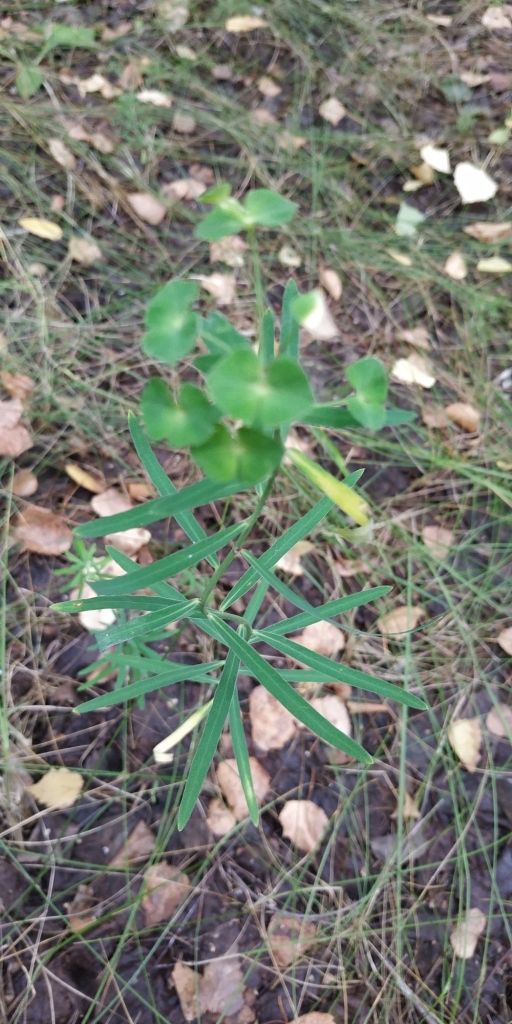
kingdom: Plantae
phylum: Tracheophyta
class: Magnoliopsida
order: Malpighiales
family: Euphorbiaceae
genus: Euphorbia
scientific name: Euphorbia virgata
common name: Leafy spurge
